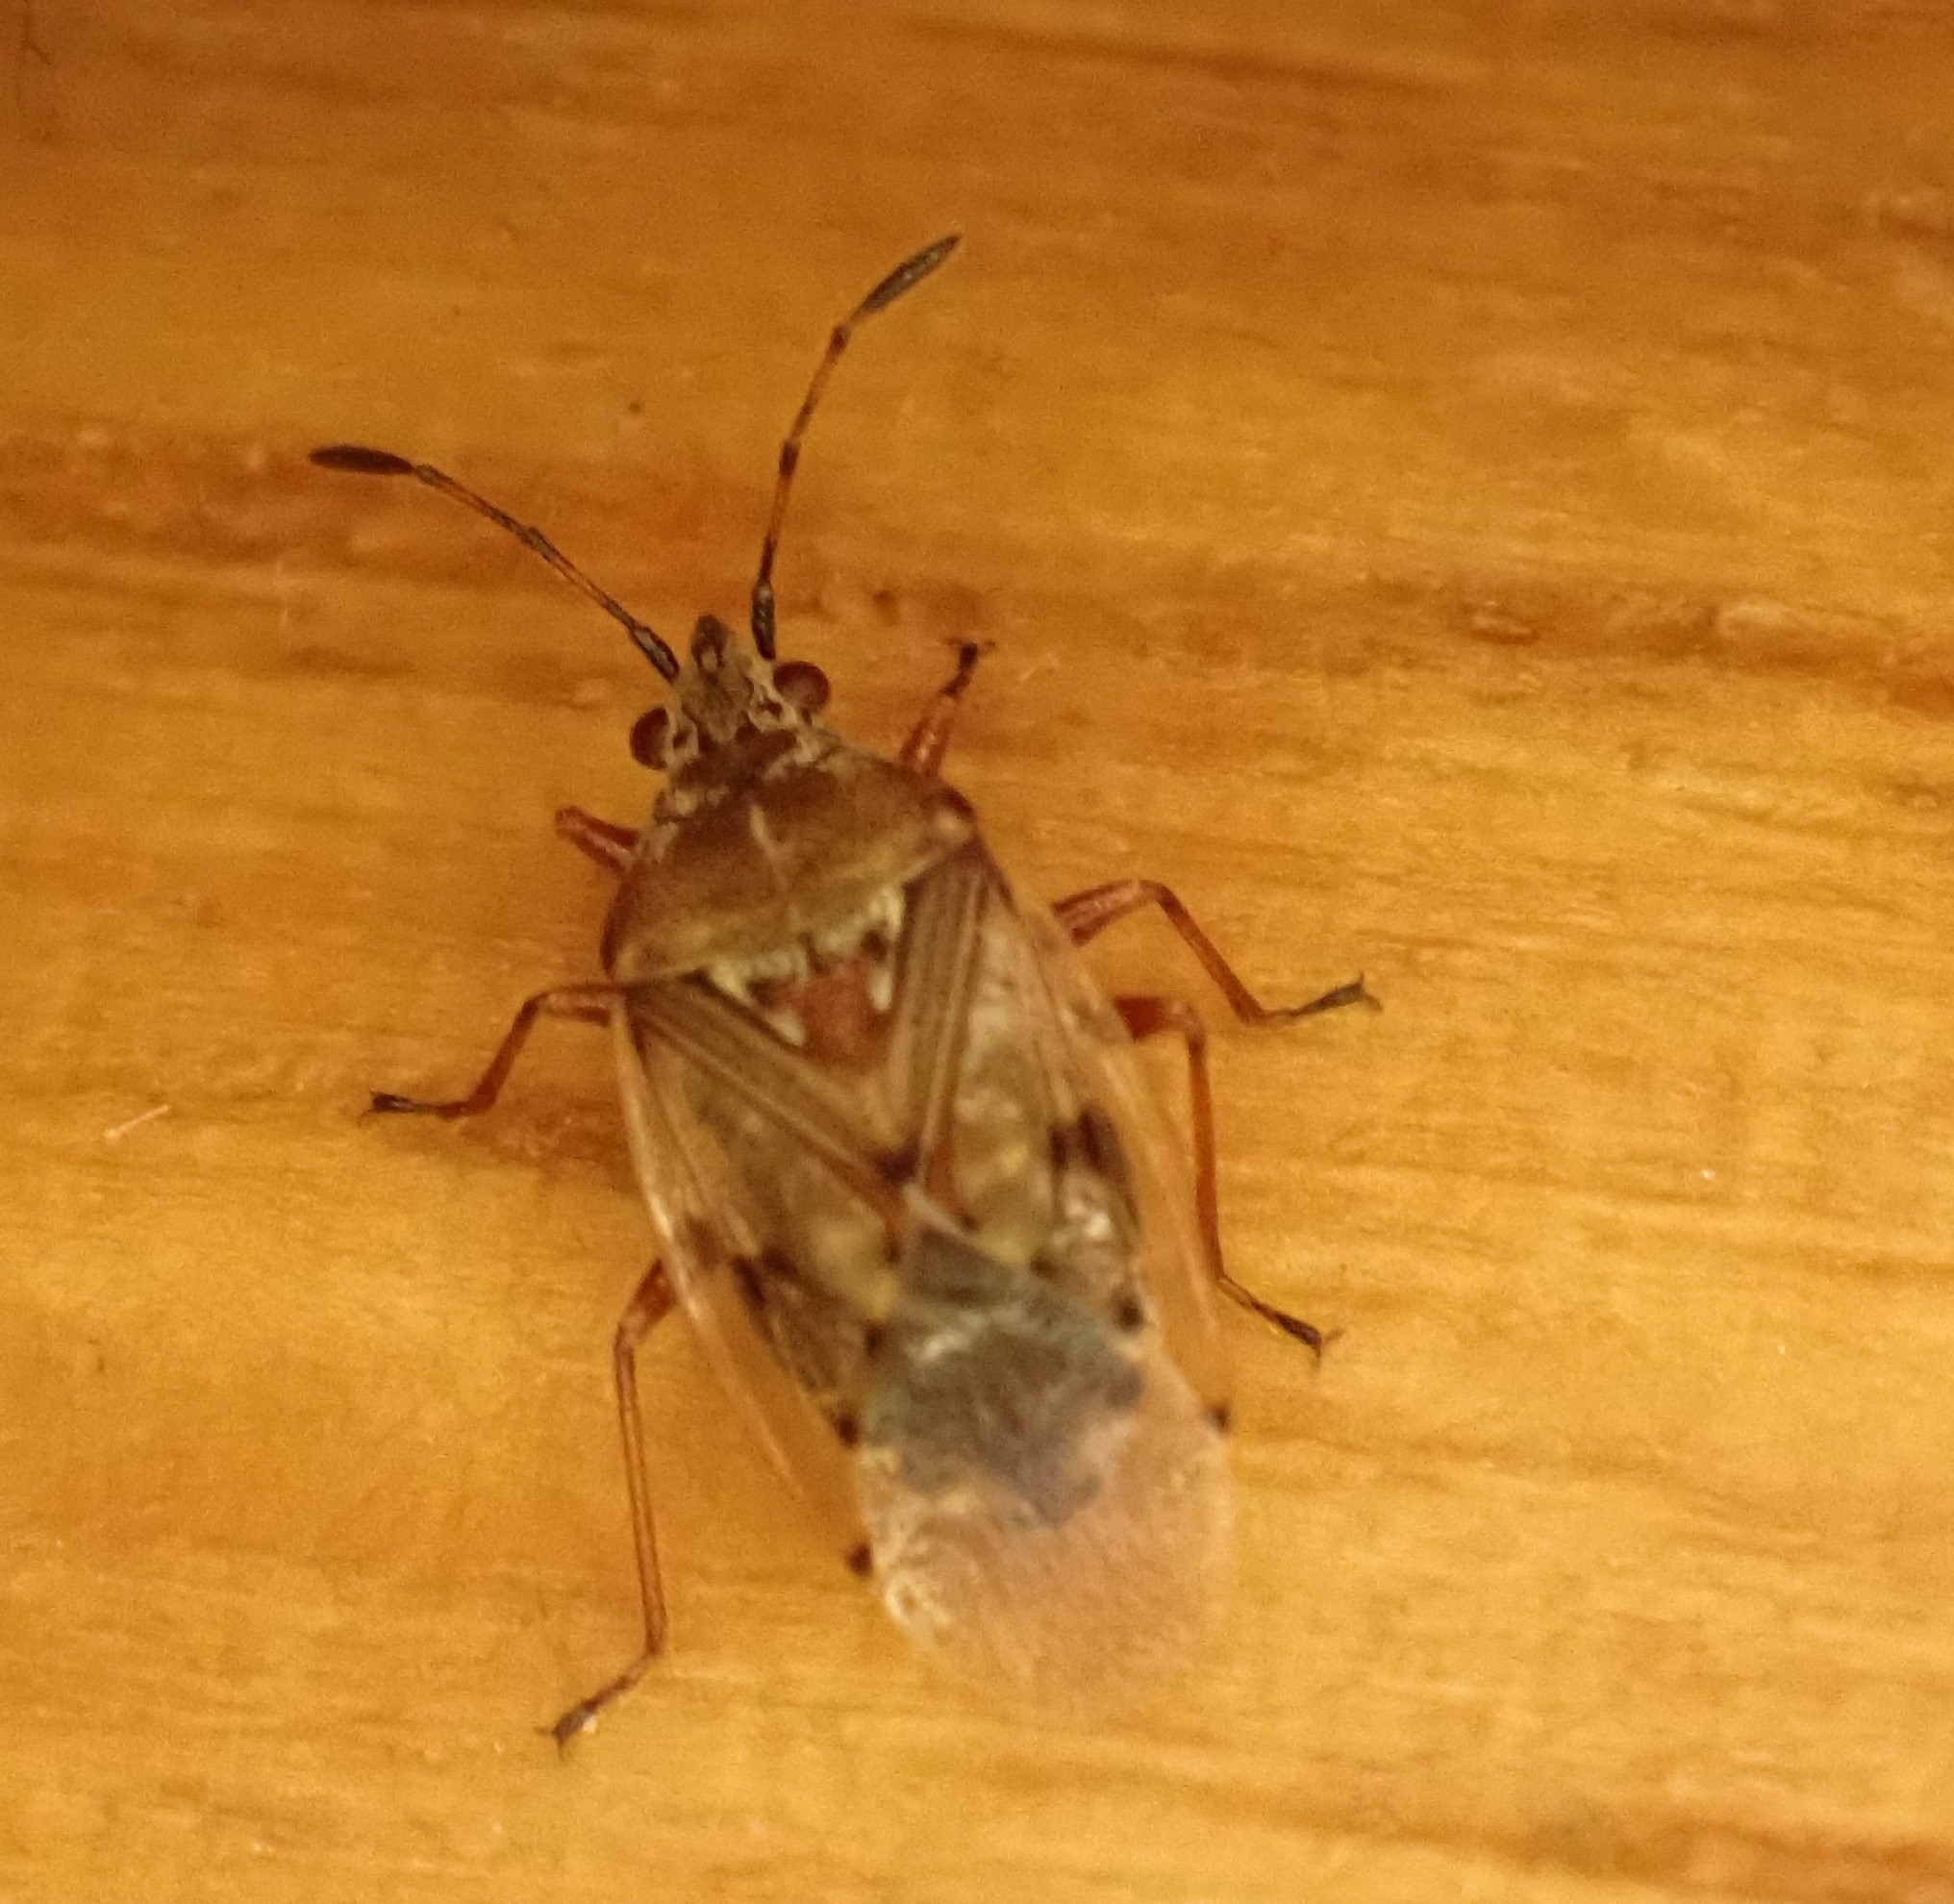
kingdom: Animalia
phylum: Arthropoda
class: Insecta
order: Hemiptera
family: Lygaeidae
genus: Kleidocerys
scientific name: Kleidocerys resedae
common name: Birch catkin bug
